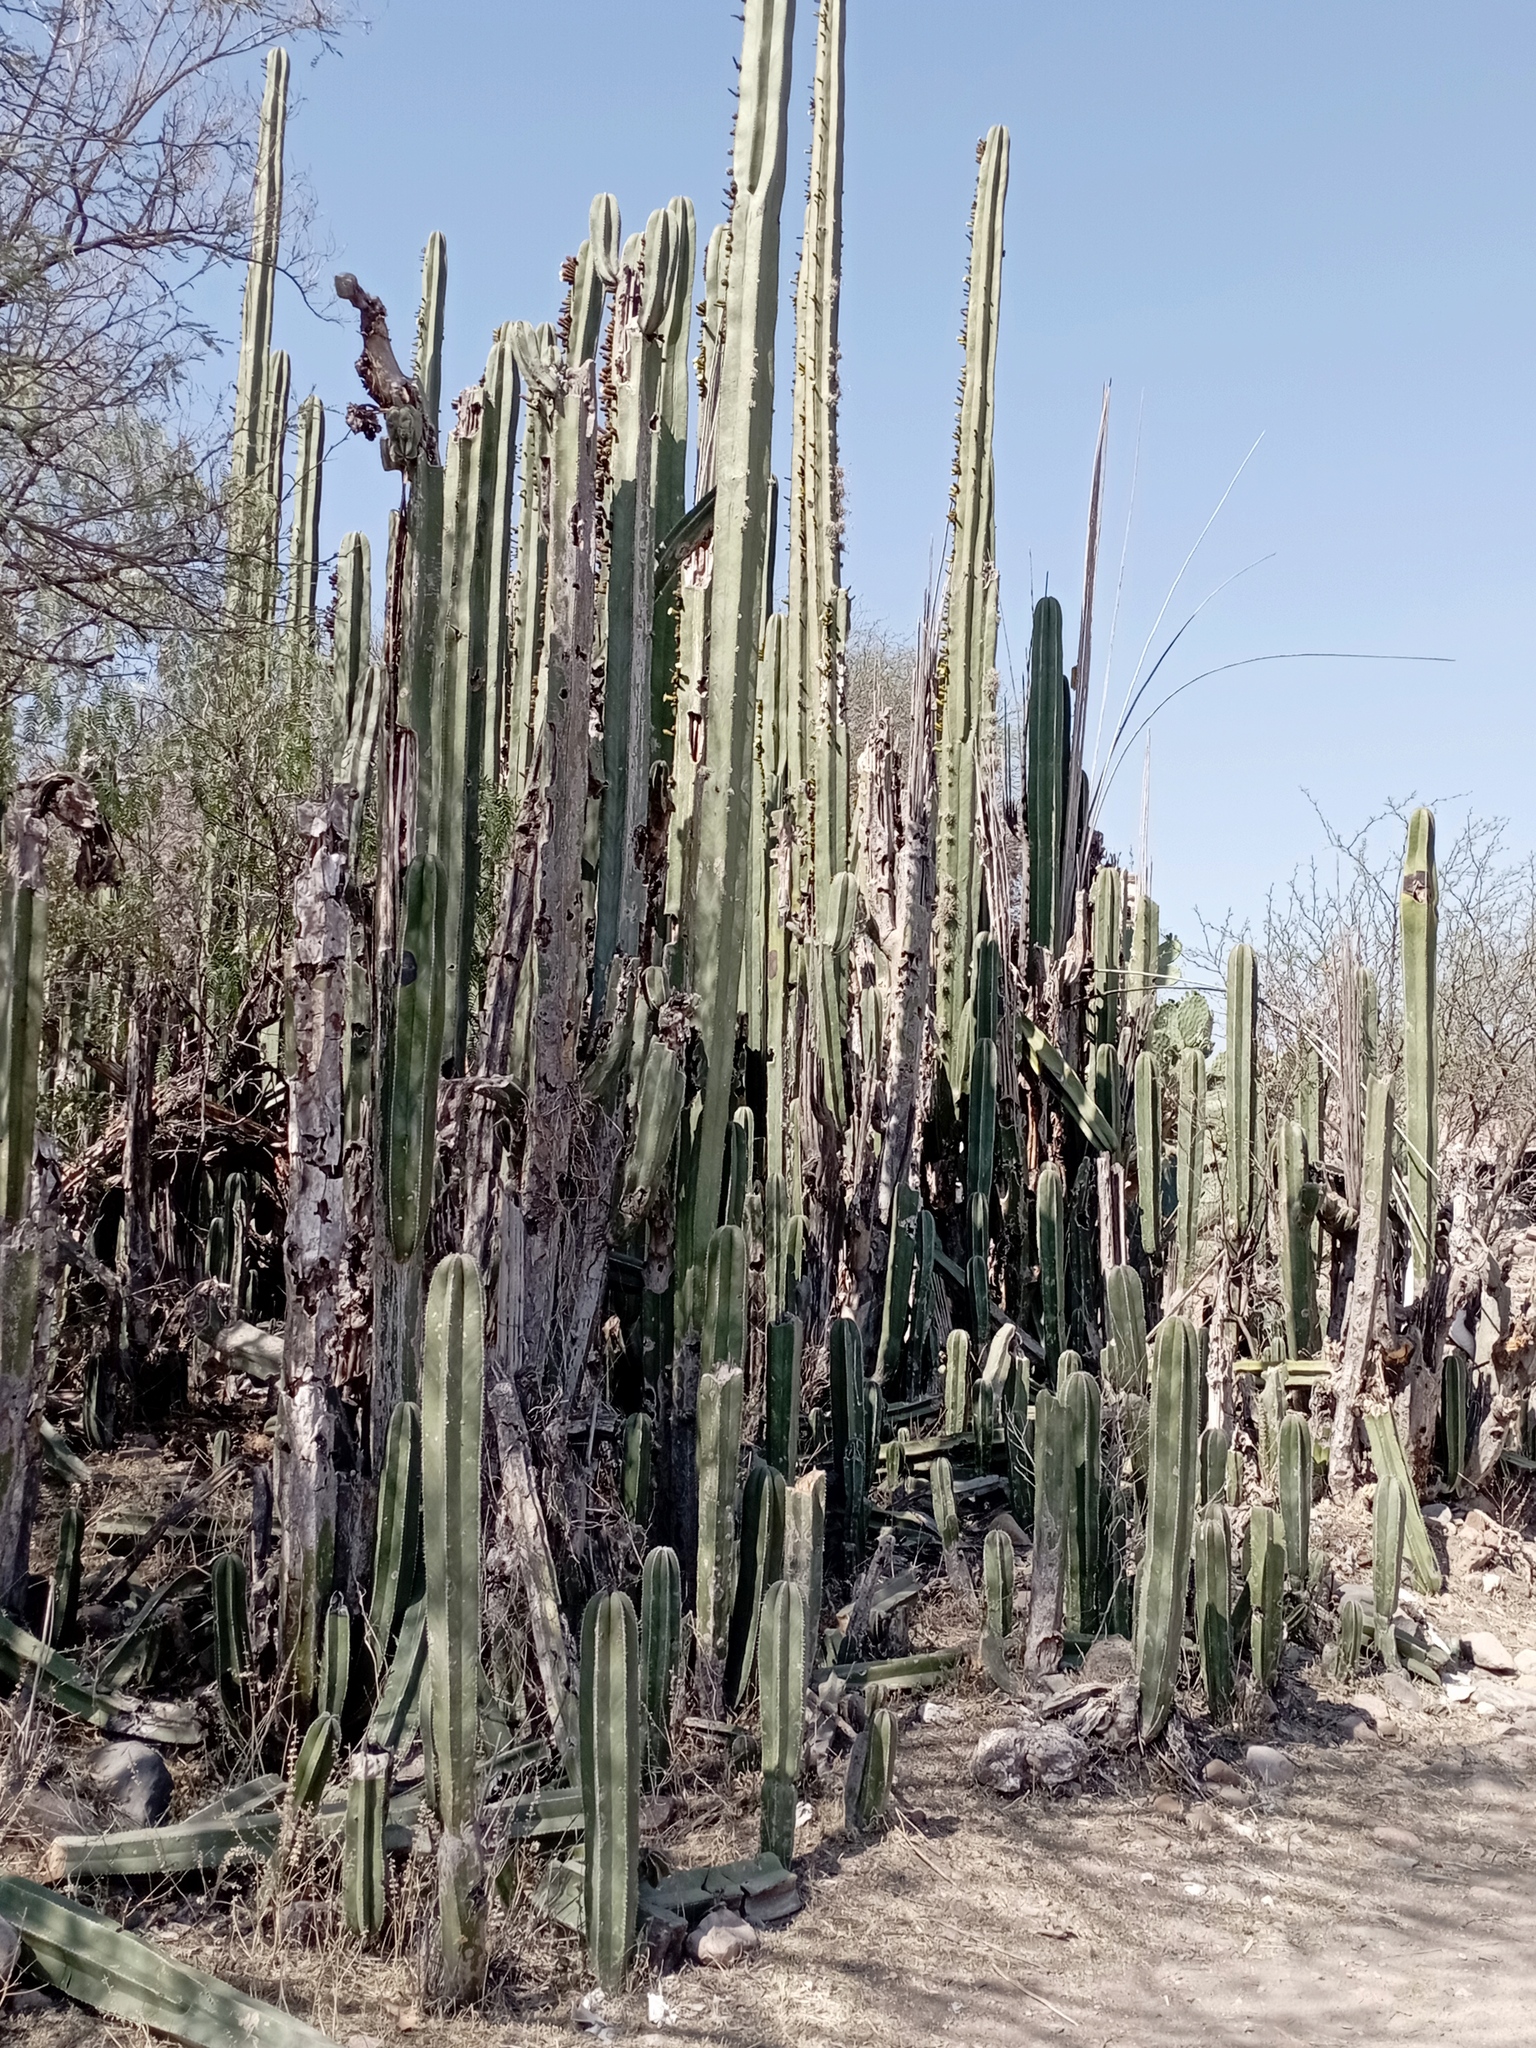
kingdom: Plantae
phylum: Tracheophyta
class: Magnoliopsida
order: Caryophyllales
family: Cactaceae
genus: Marginatocereus
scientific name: Marginatocereus marginatus
